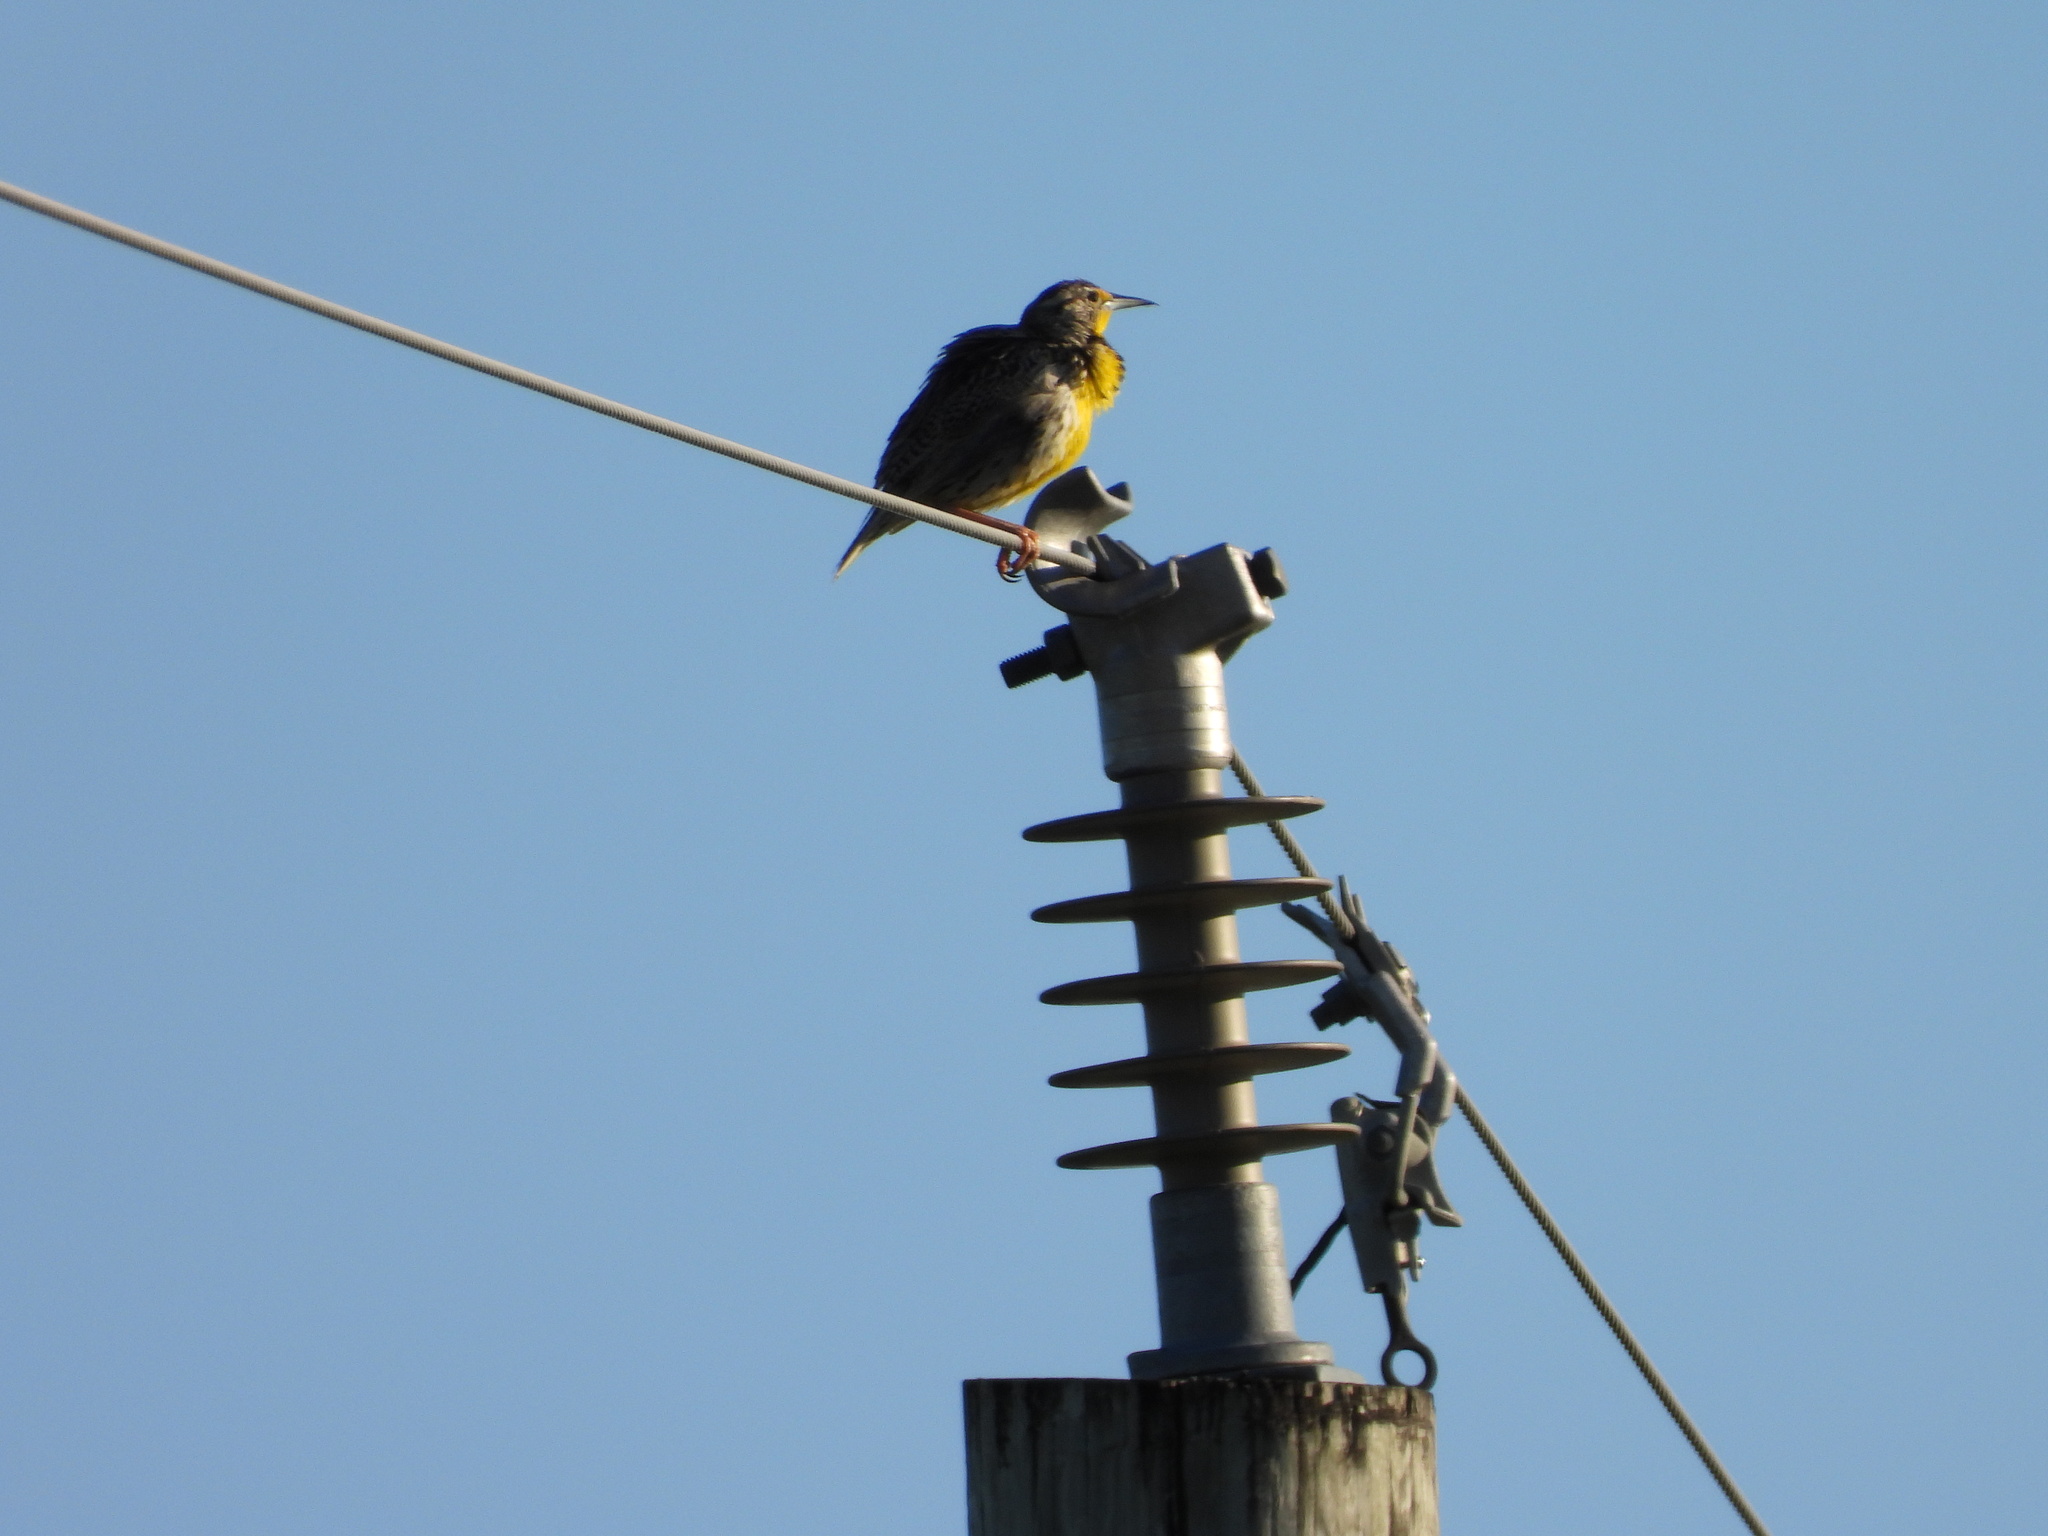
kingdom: Animalia
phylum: Chordata
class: Aves
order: Passeriformes
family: Icteridae
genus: Sturnella
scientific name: Sturnella neglecta
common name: Western meadowlark
